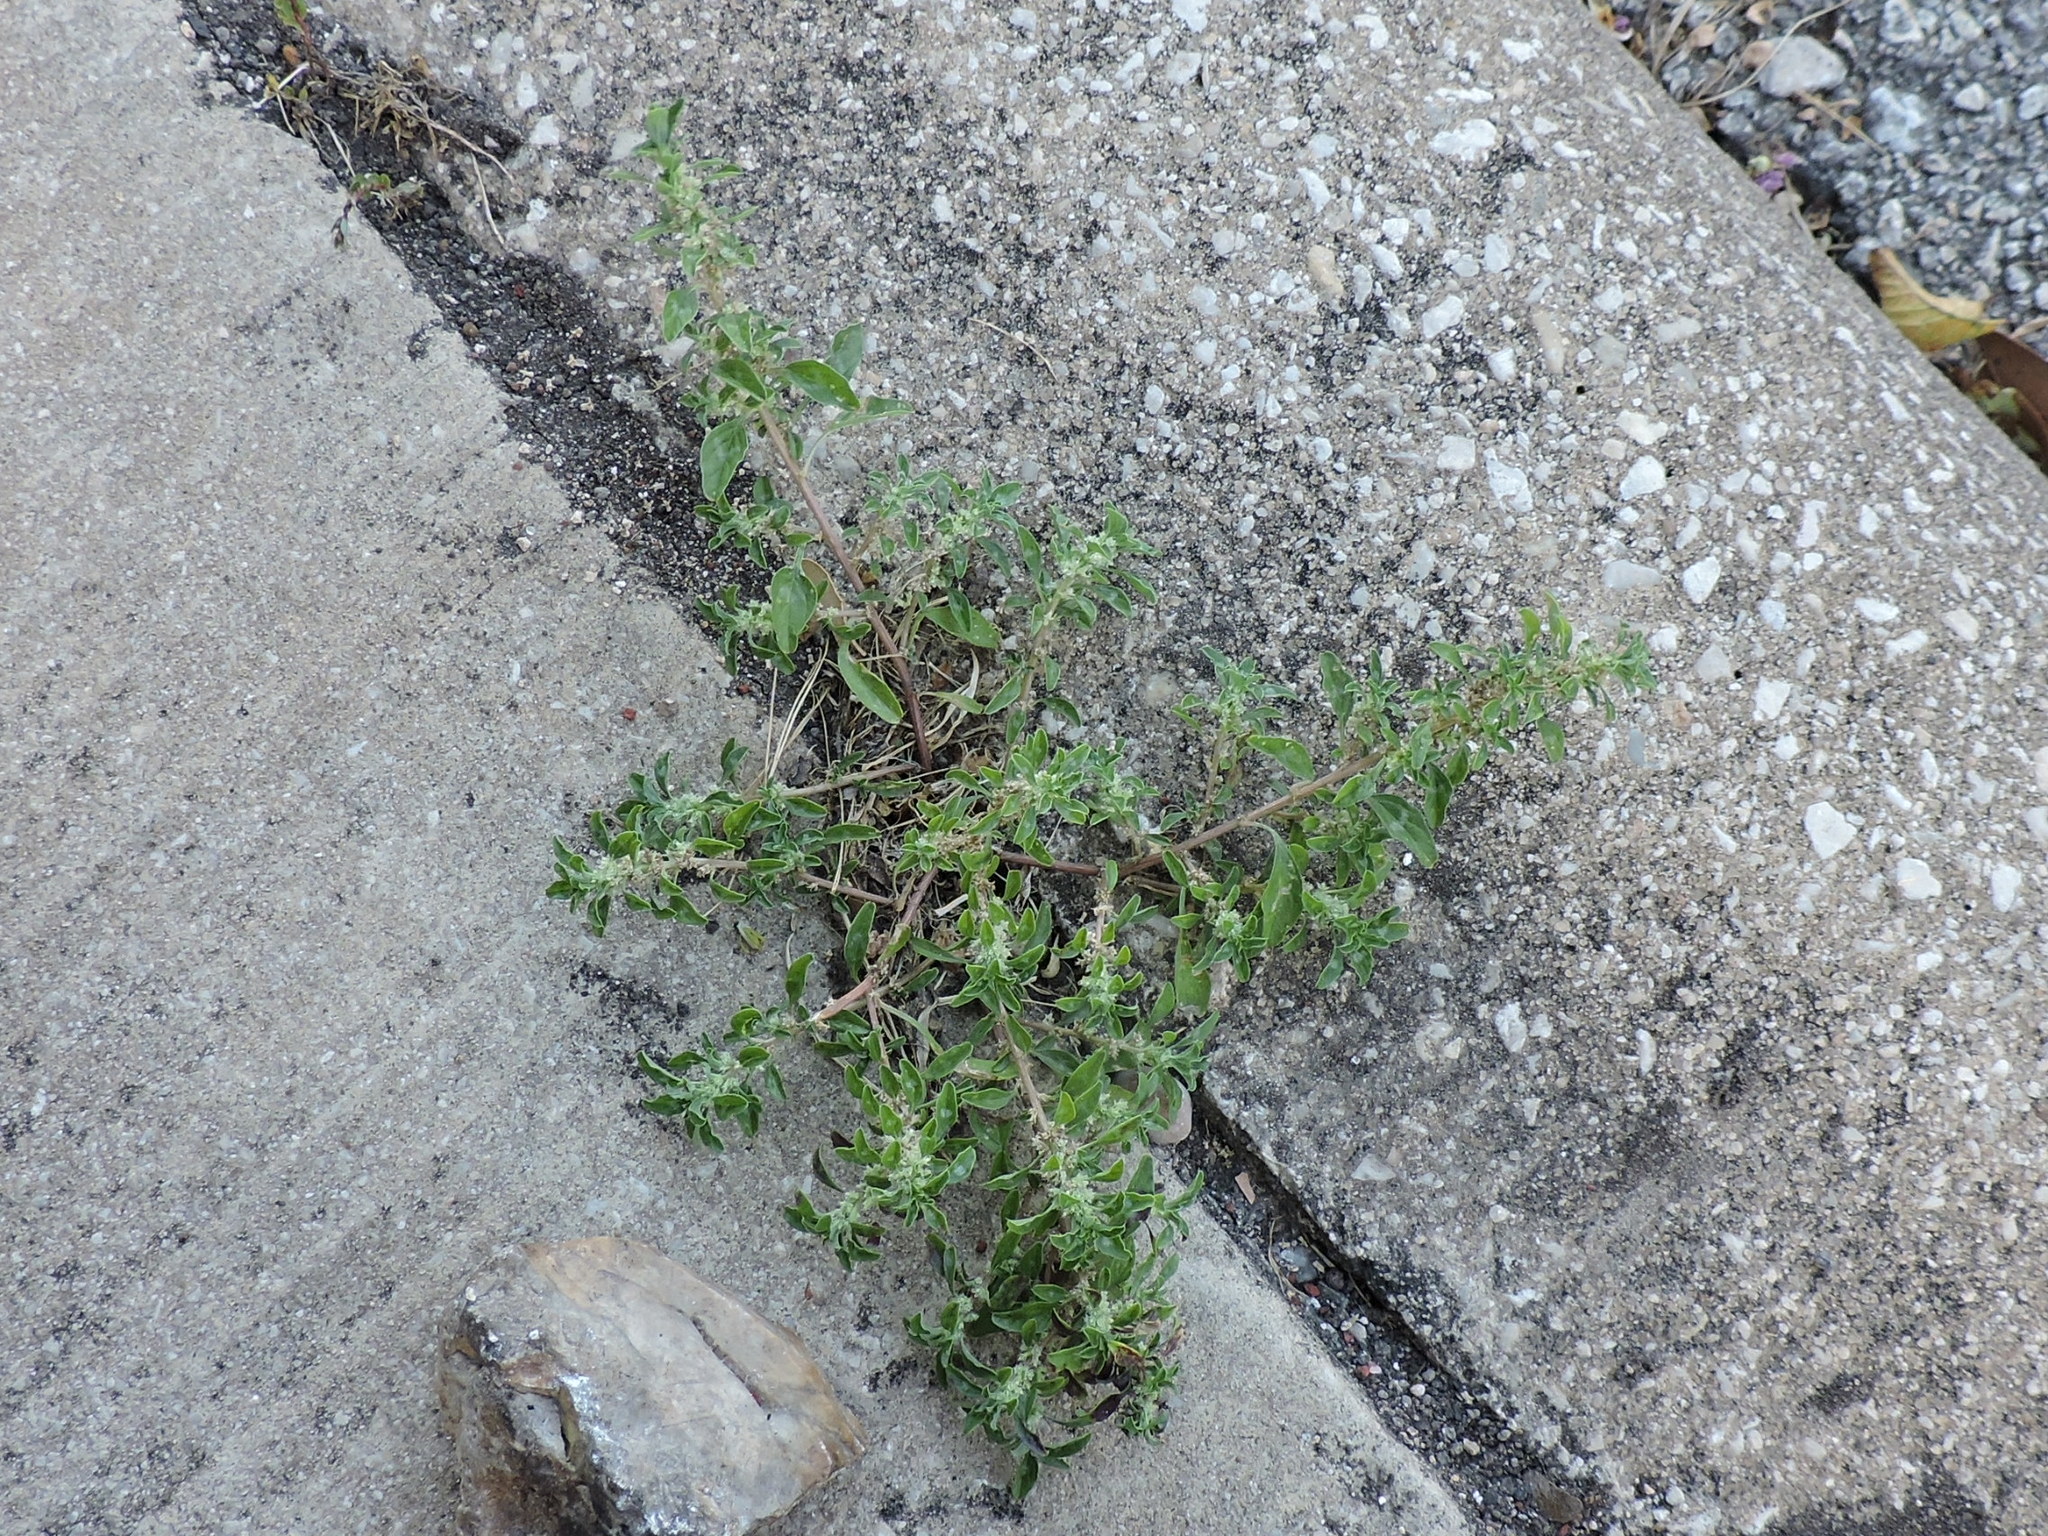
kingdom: Plantae
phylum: Tracheophyta
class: Magnoliopsida
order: Caryophyllales
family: Amaranthaceae
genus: Amaranthus
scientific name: Amaranthus polygonoides
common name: Tropical amaranth
